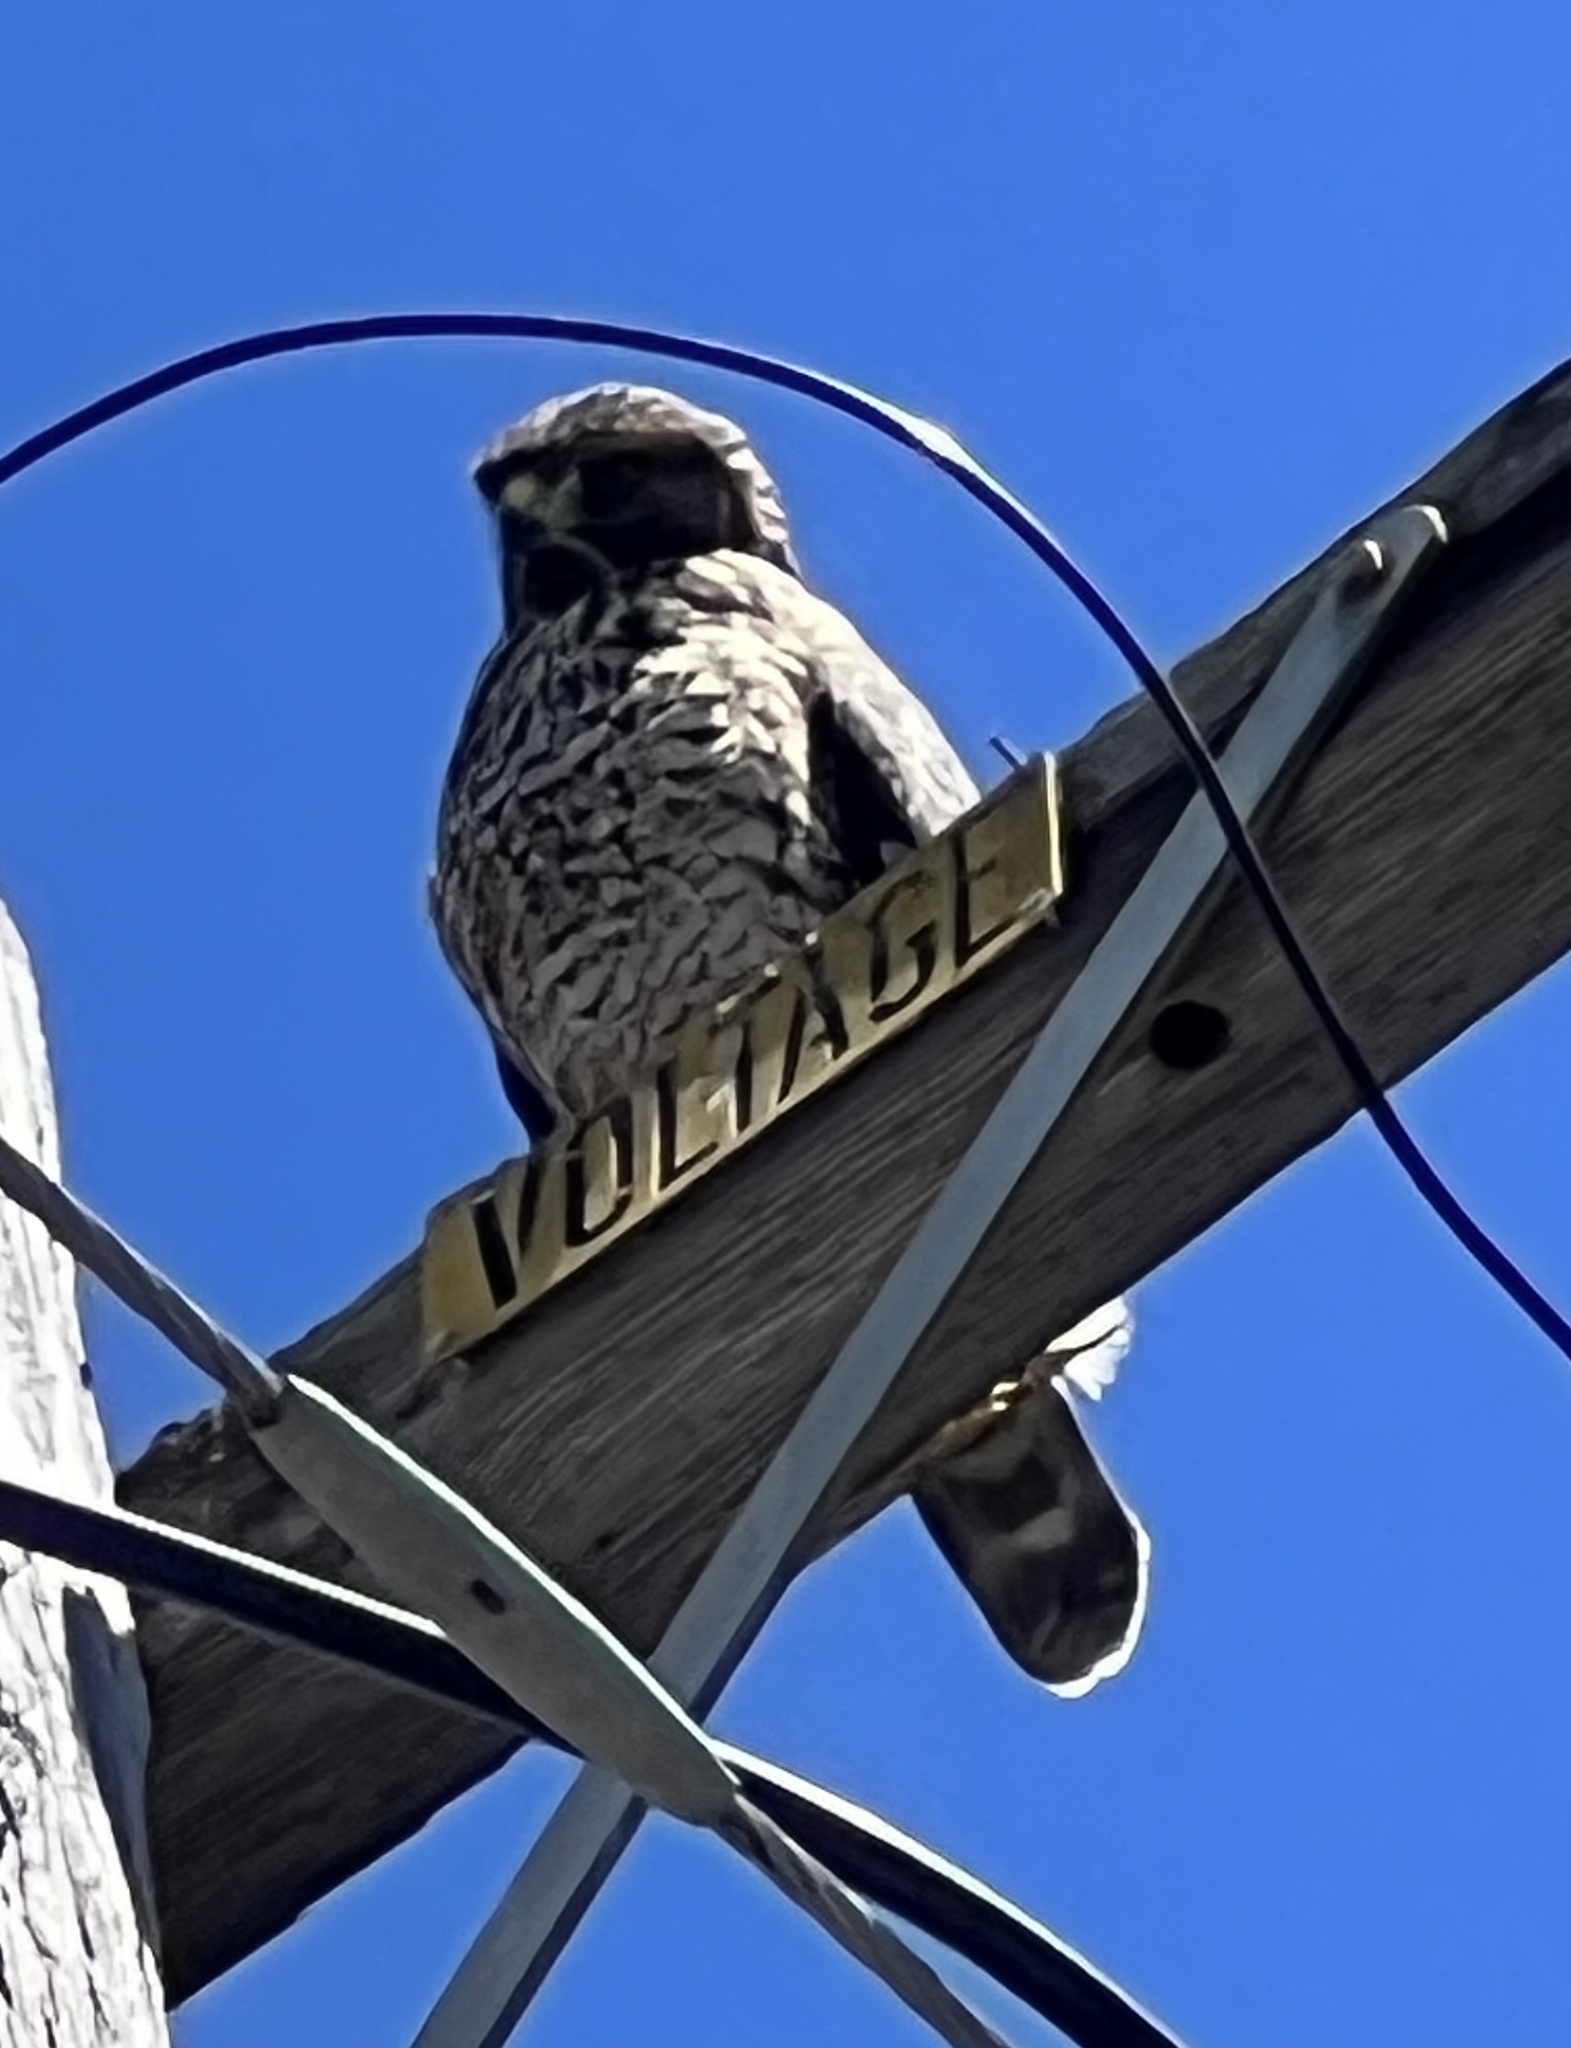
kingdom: Animalia
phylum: Chordata
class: Aves
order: Accipitriformes
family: Accipitridae
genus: Buteo
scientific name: Buteo lineatus
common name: Red-shouldered hawk
